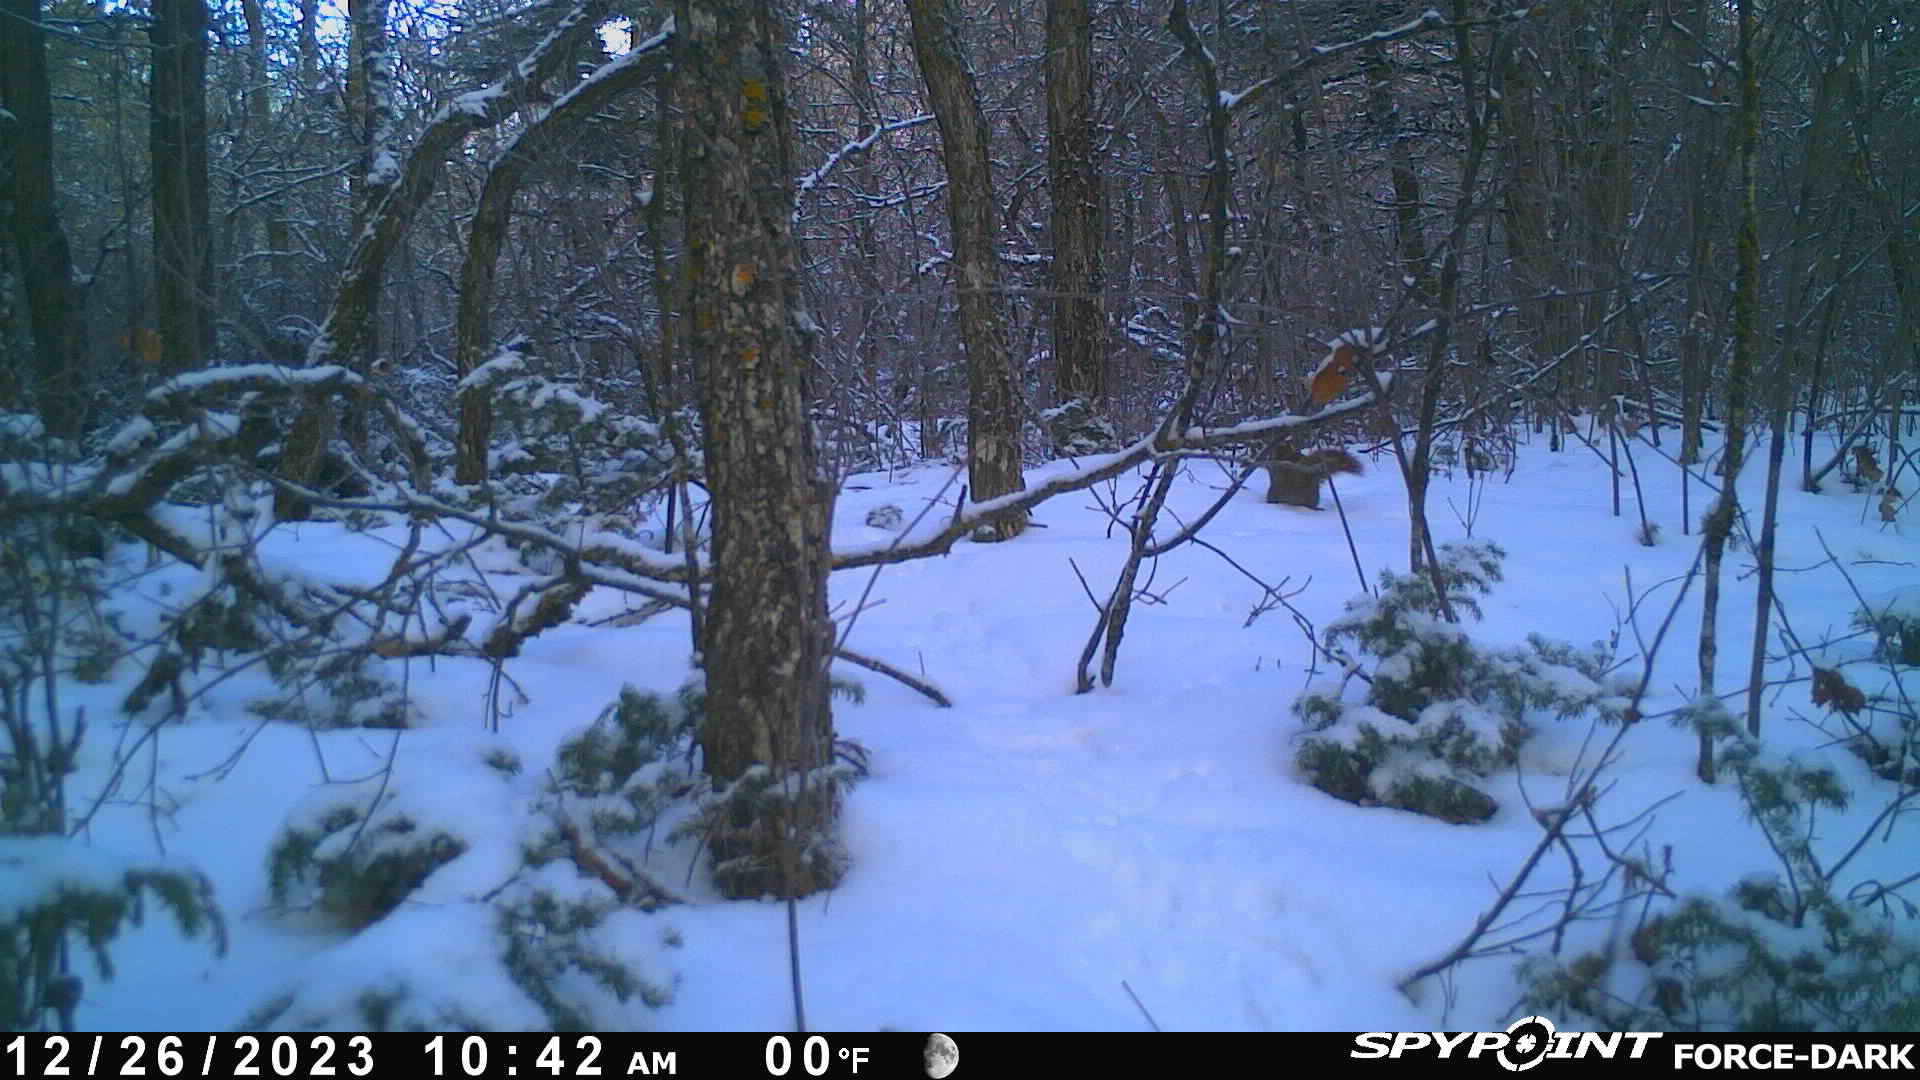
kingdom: Animalia
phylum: Chordata
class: Mammalia
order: Rodentia
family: Sciuridae
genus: Tamiasciurus
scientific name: Tamiasciurus hudsonicus
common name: Red squirrel
